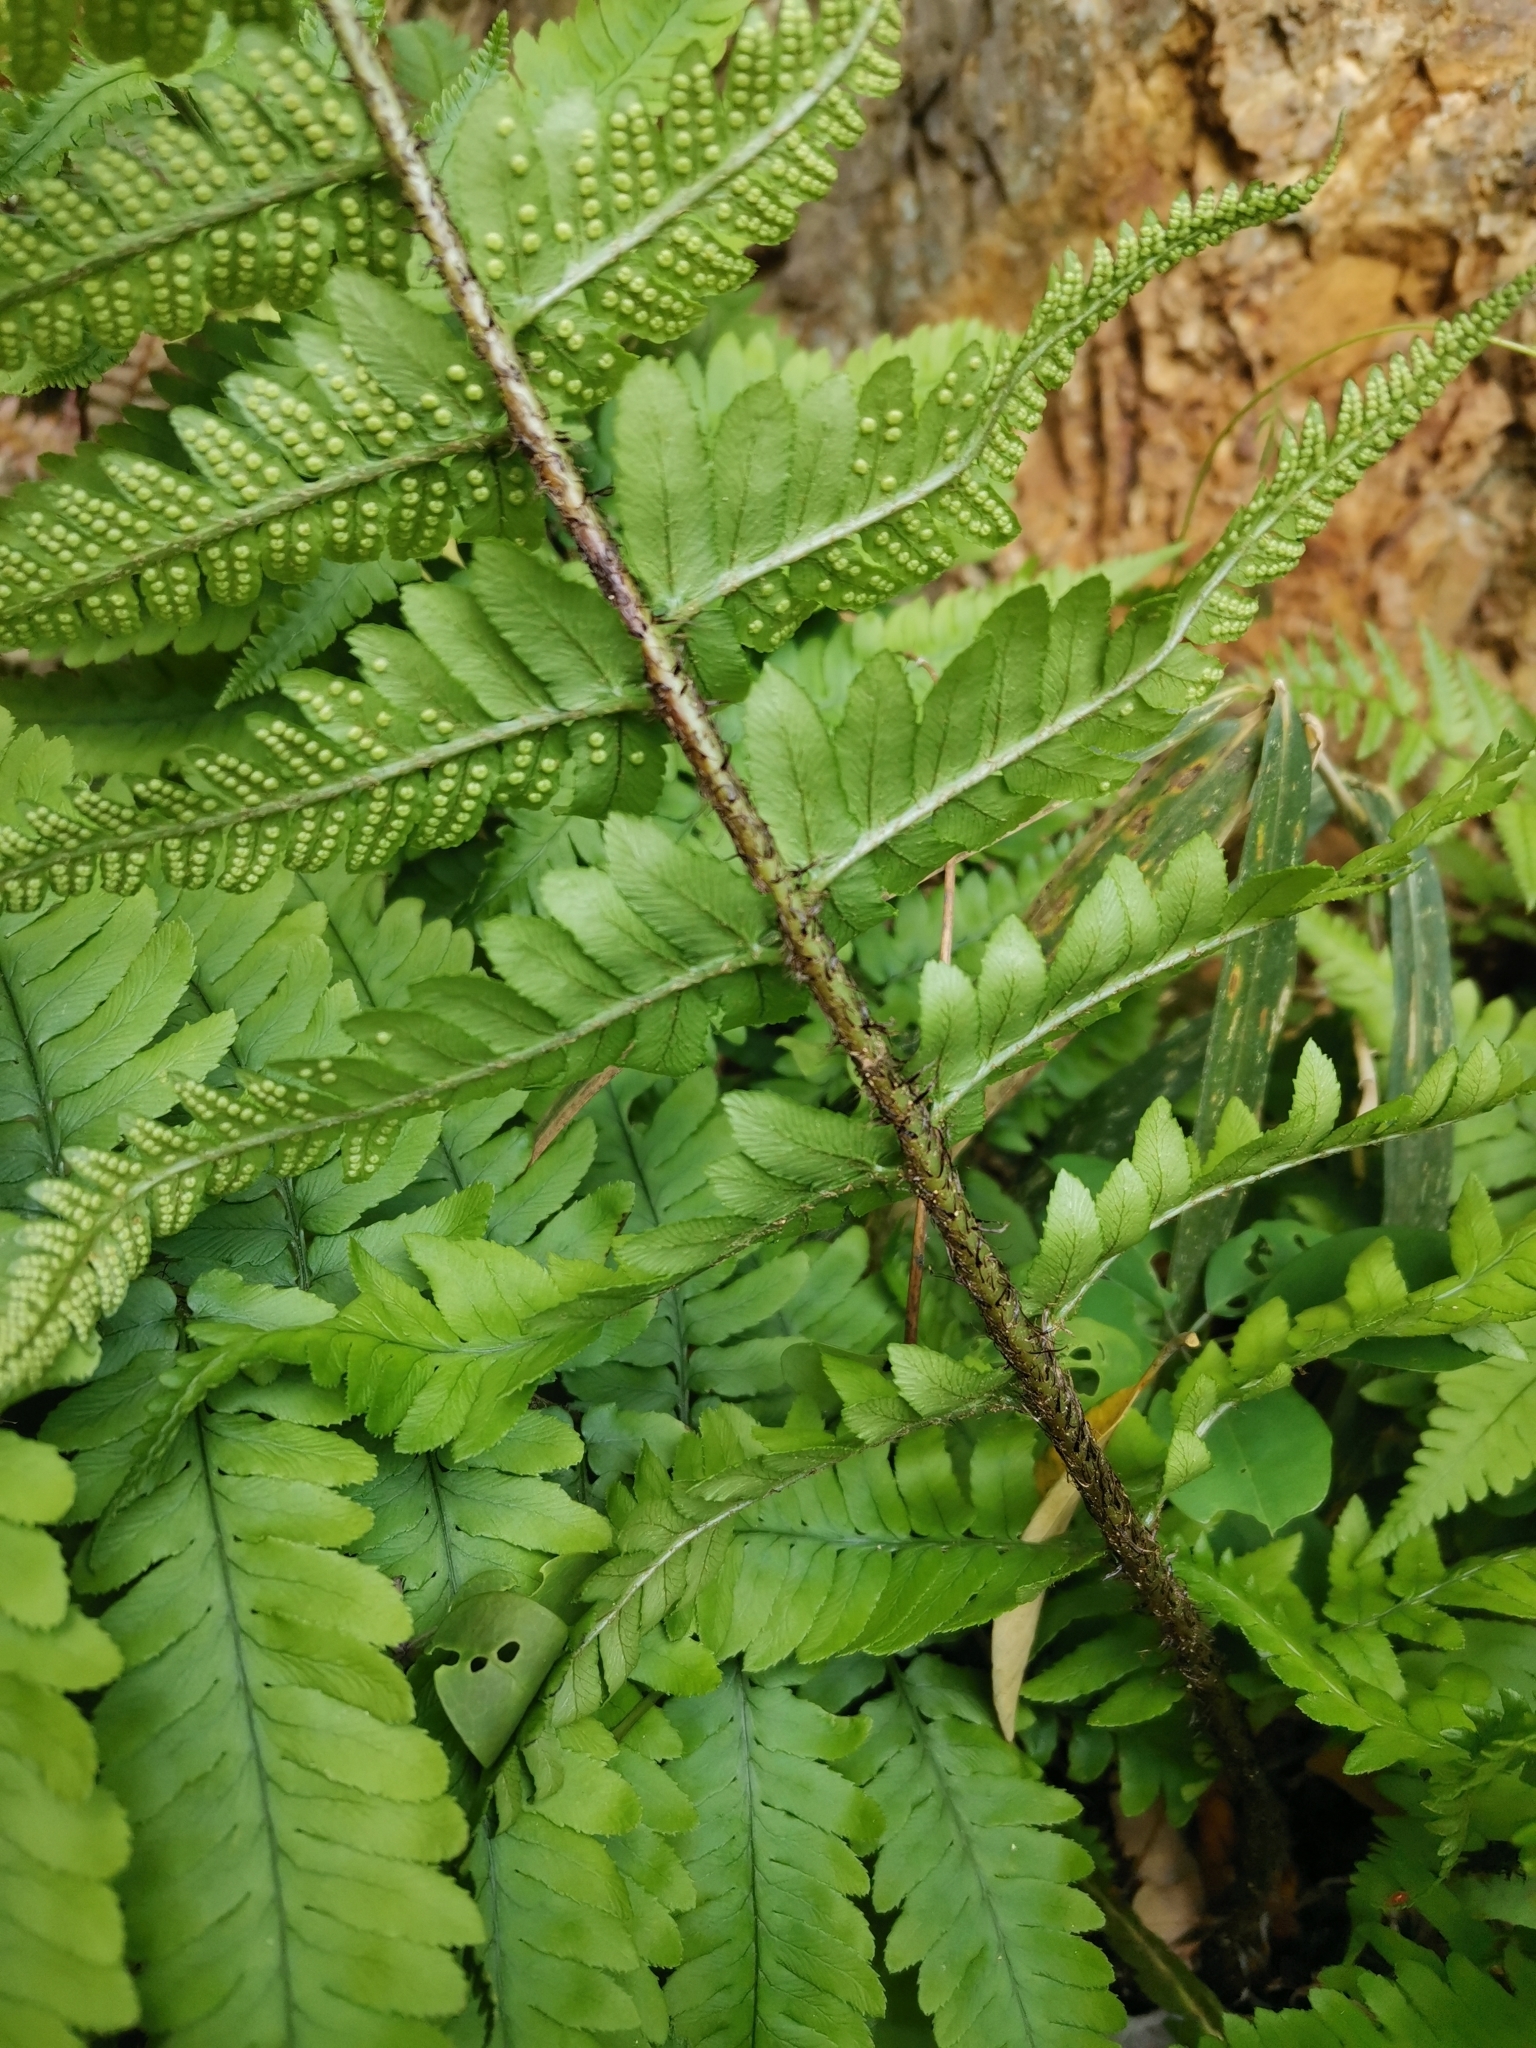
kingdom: Plantae
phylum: Tracheophyta
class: Polypodiopsida
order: Polypodiales
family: Dryopteridaceae
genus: Dryopteris
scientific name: Dryopteris uniformis
